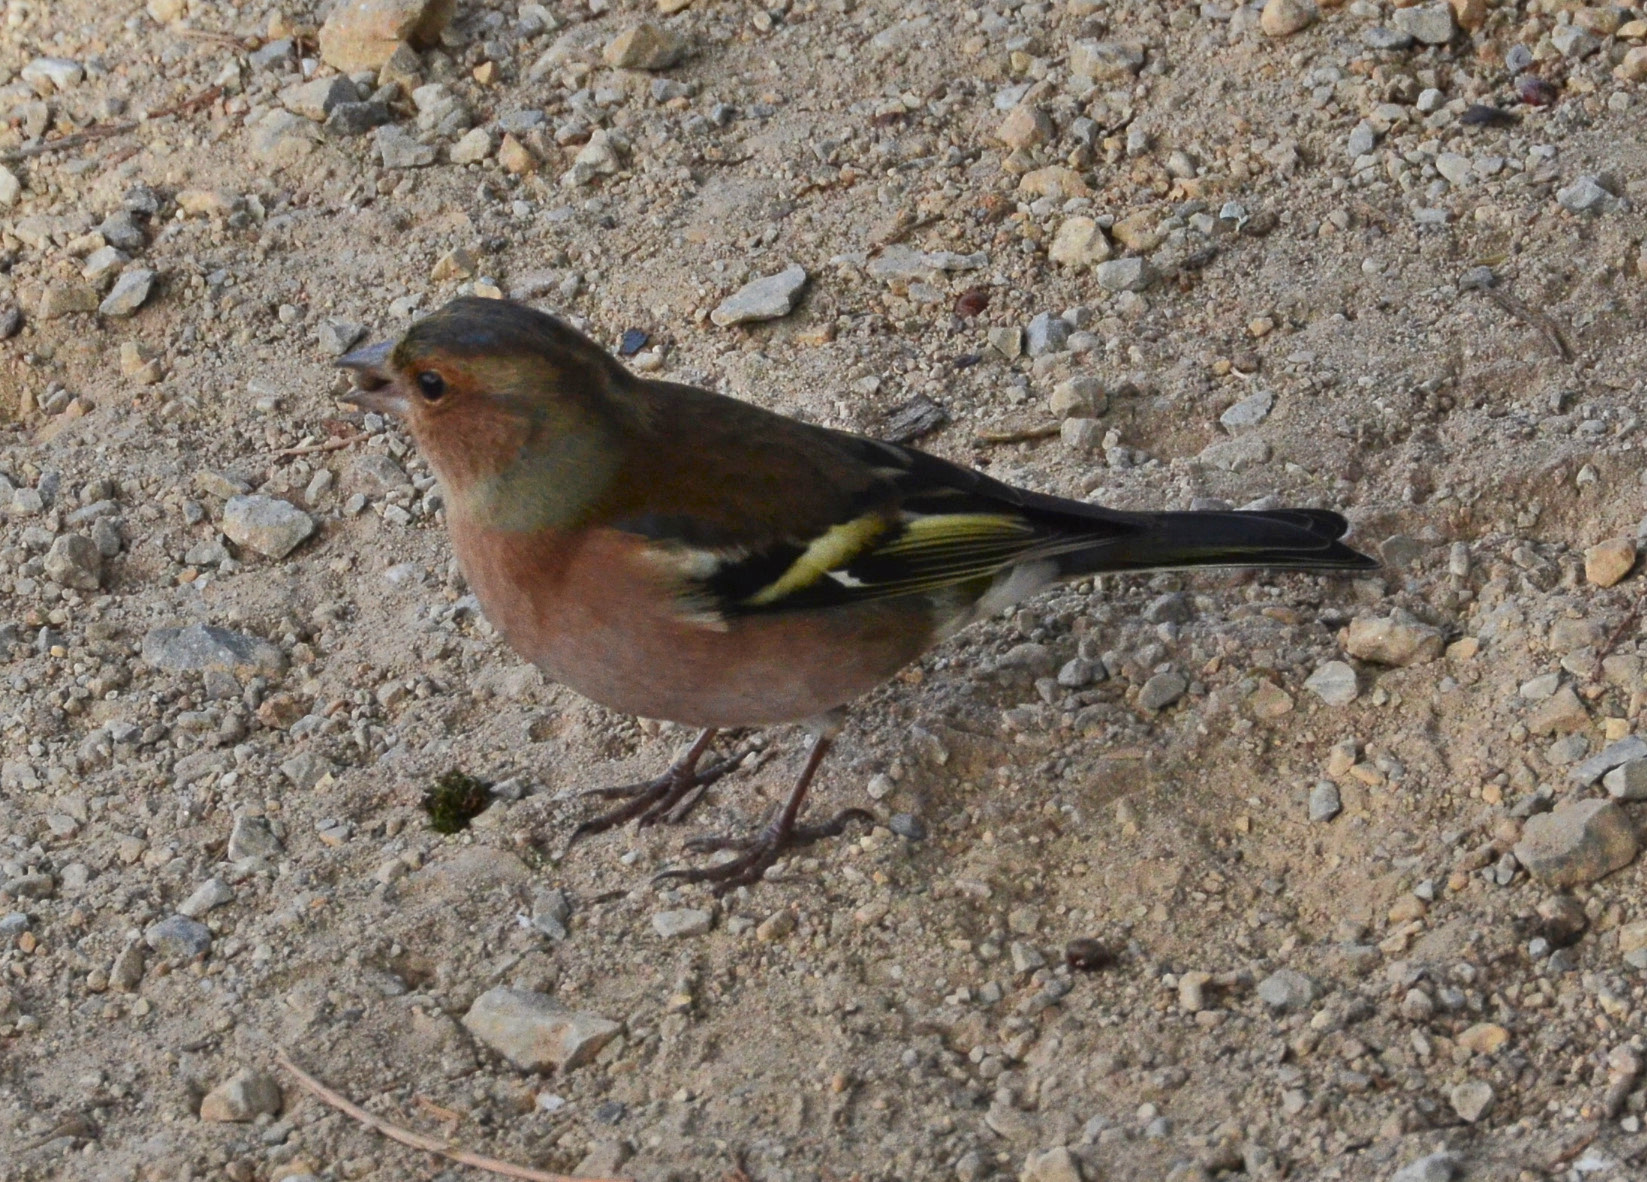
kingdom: Animalia
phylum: Chordata
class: Aves
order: Passeriformes
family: Fringillidae
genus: Fringilla
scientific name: Fringilla coelebs
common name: Common chaffinch
